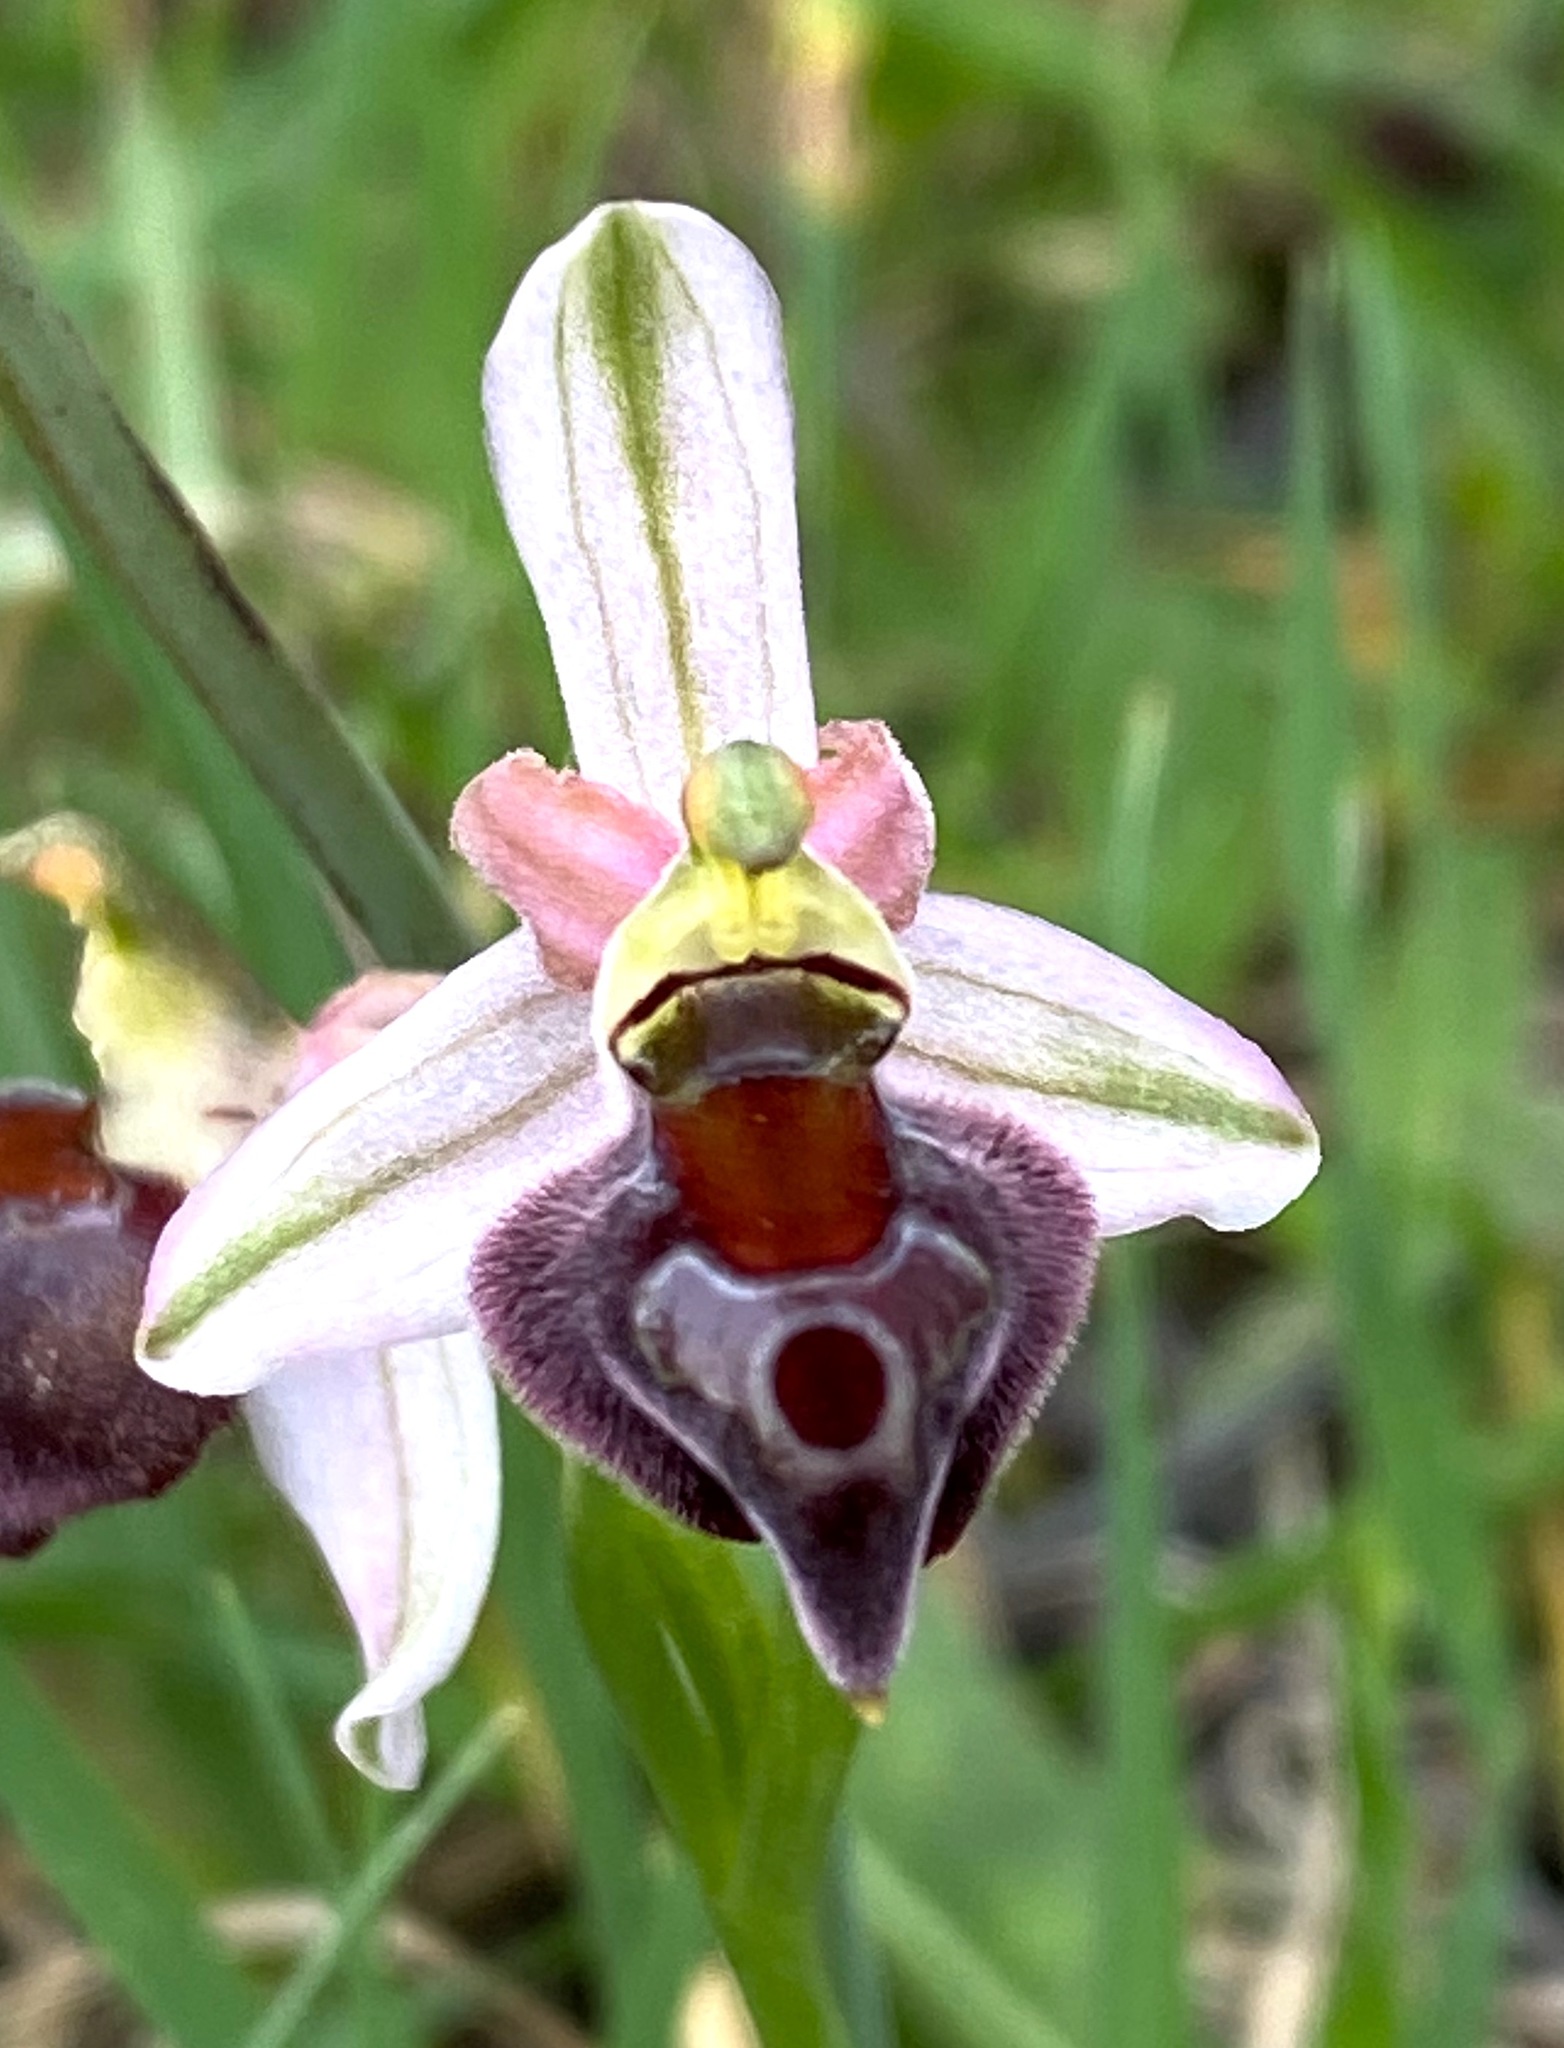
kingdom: Plantae
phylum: Tracheophyta
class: Liliopsida
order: Asparagales
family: Orchidaceae
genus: Ophrys
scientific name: Ophrys argolica
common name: Argolic ophrys
